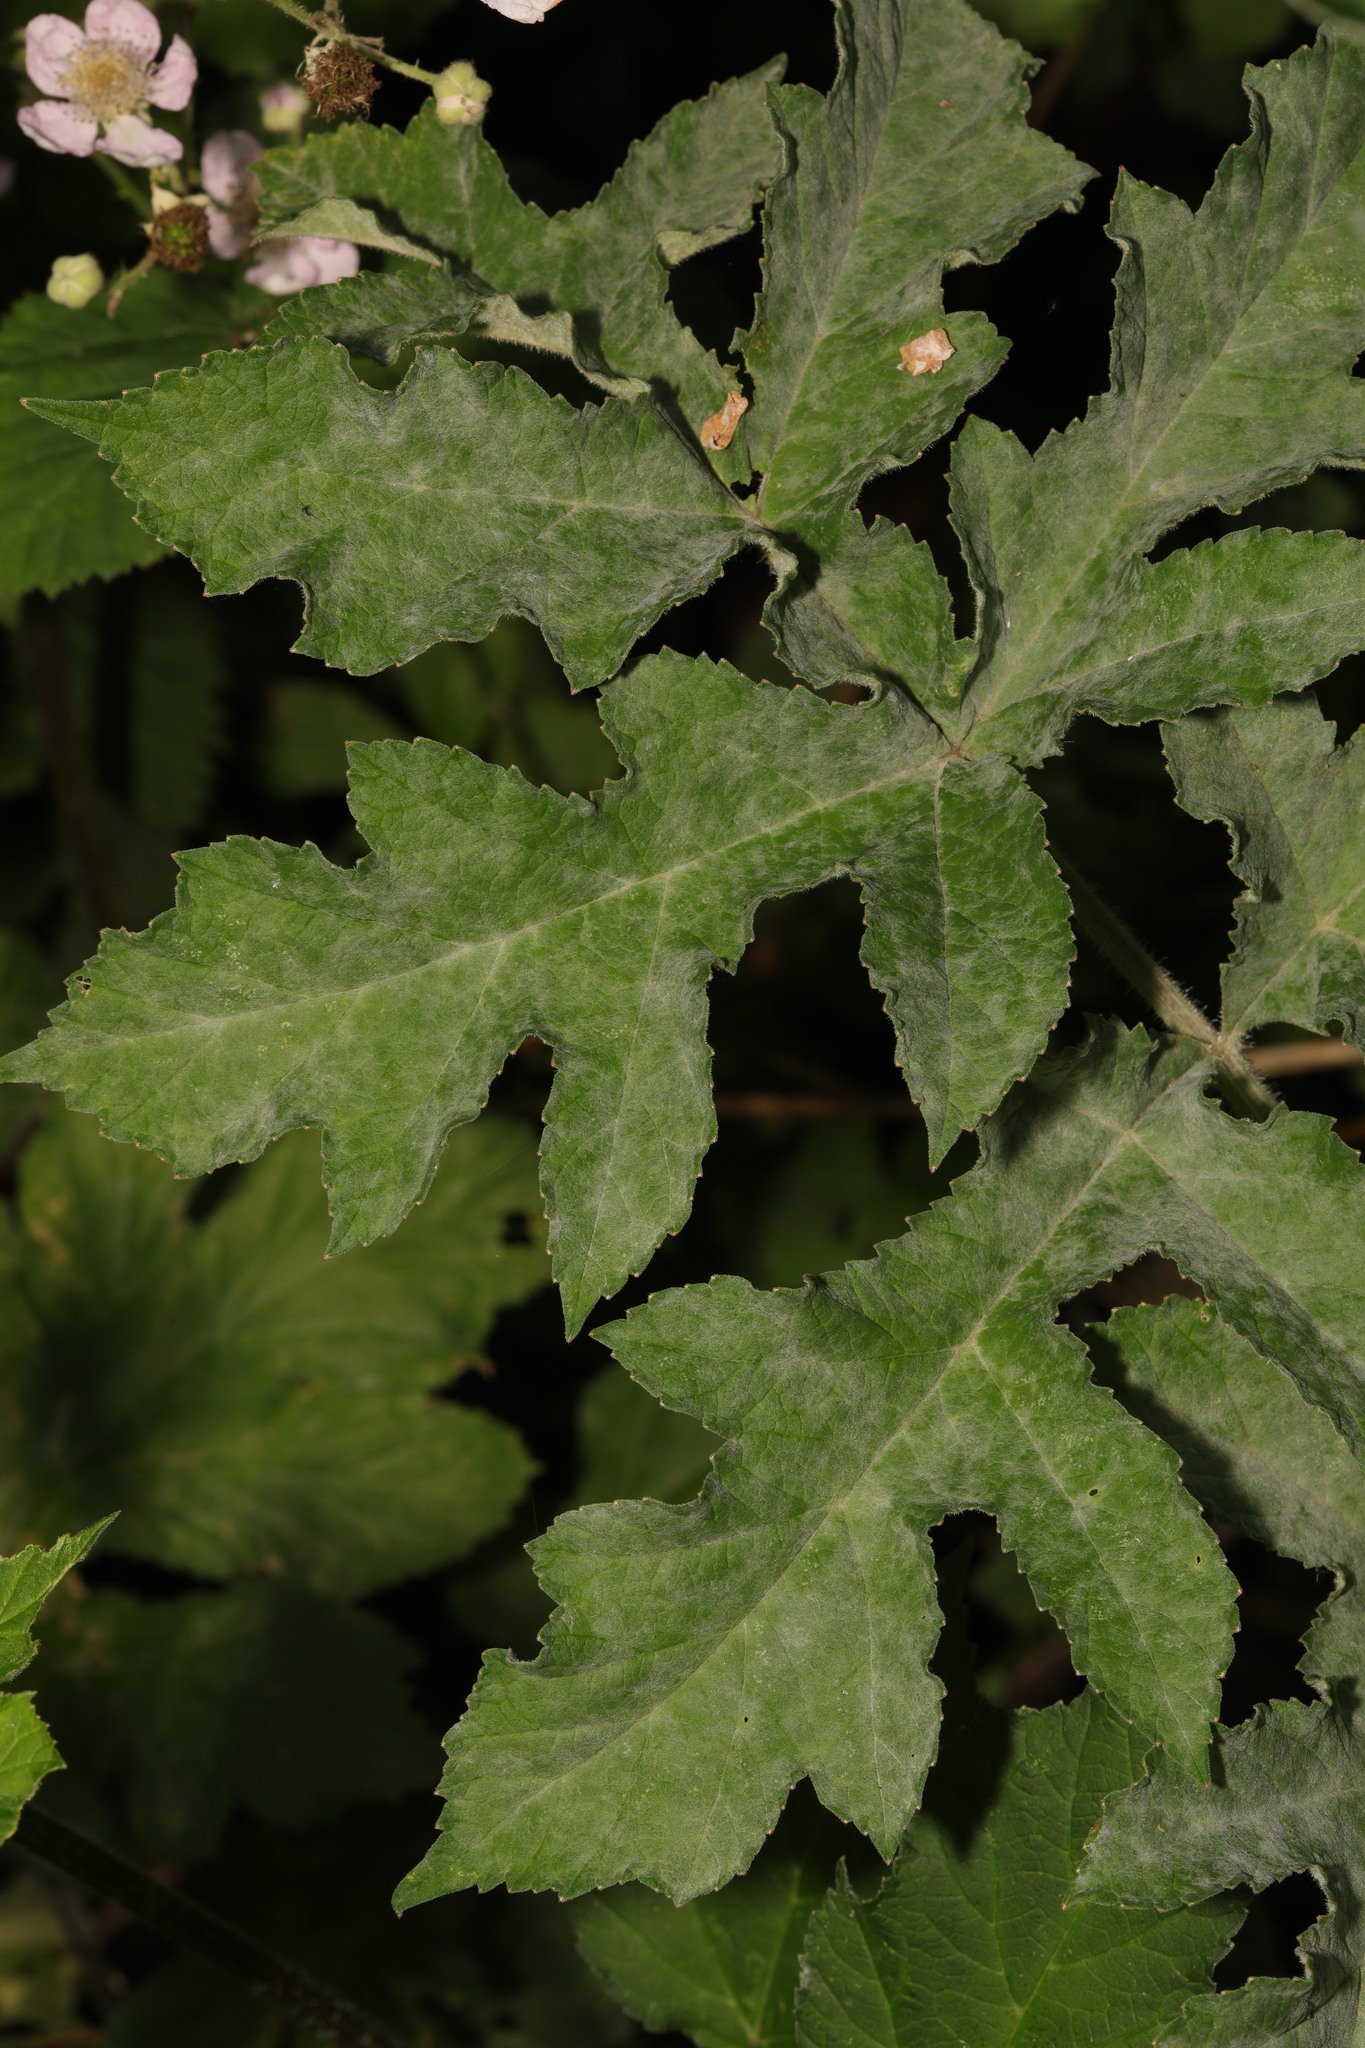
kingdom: Fungi
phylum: Ascomycota
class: Leotiomycetes
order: Helotiales
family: Erysiphaceae
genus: Erysiphe
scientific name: Erysiphe heraclei
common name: Umbellifer mildew
